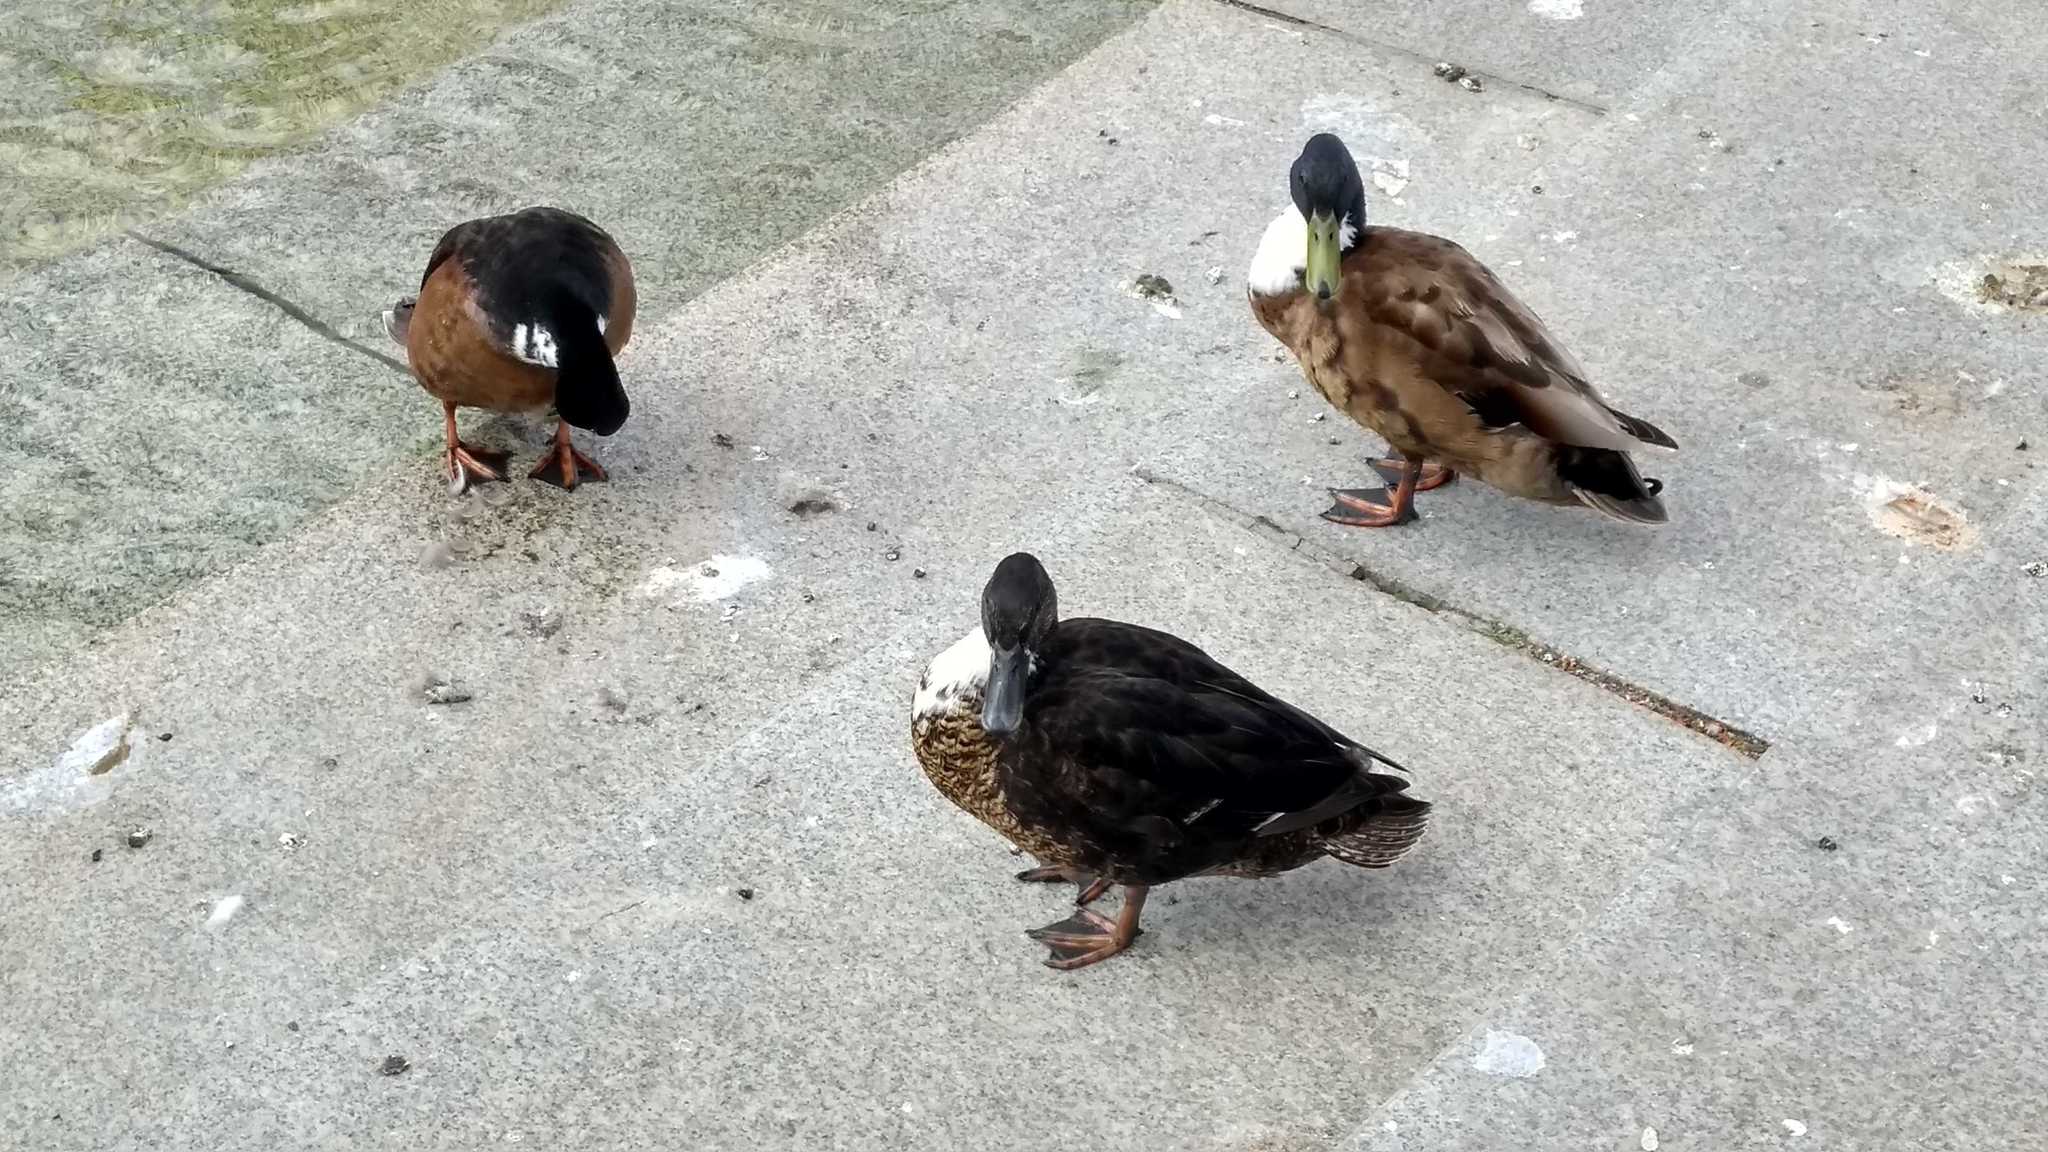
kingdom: Animalia
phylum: Chordata
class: Aves
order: Anseriformes
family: Anatidae
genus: Anas
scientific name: Anas platyrhynchos
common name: Mallard
